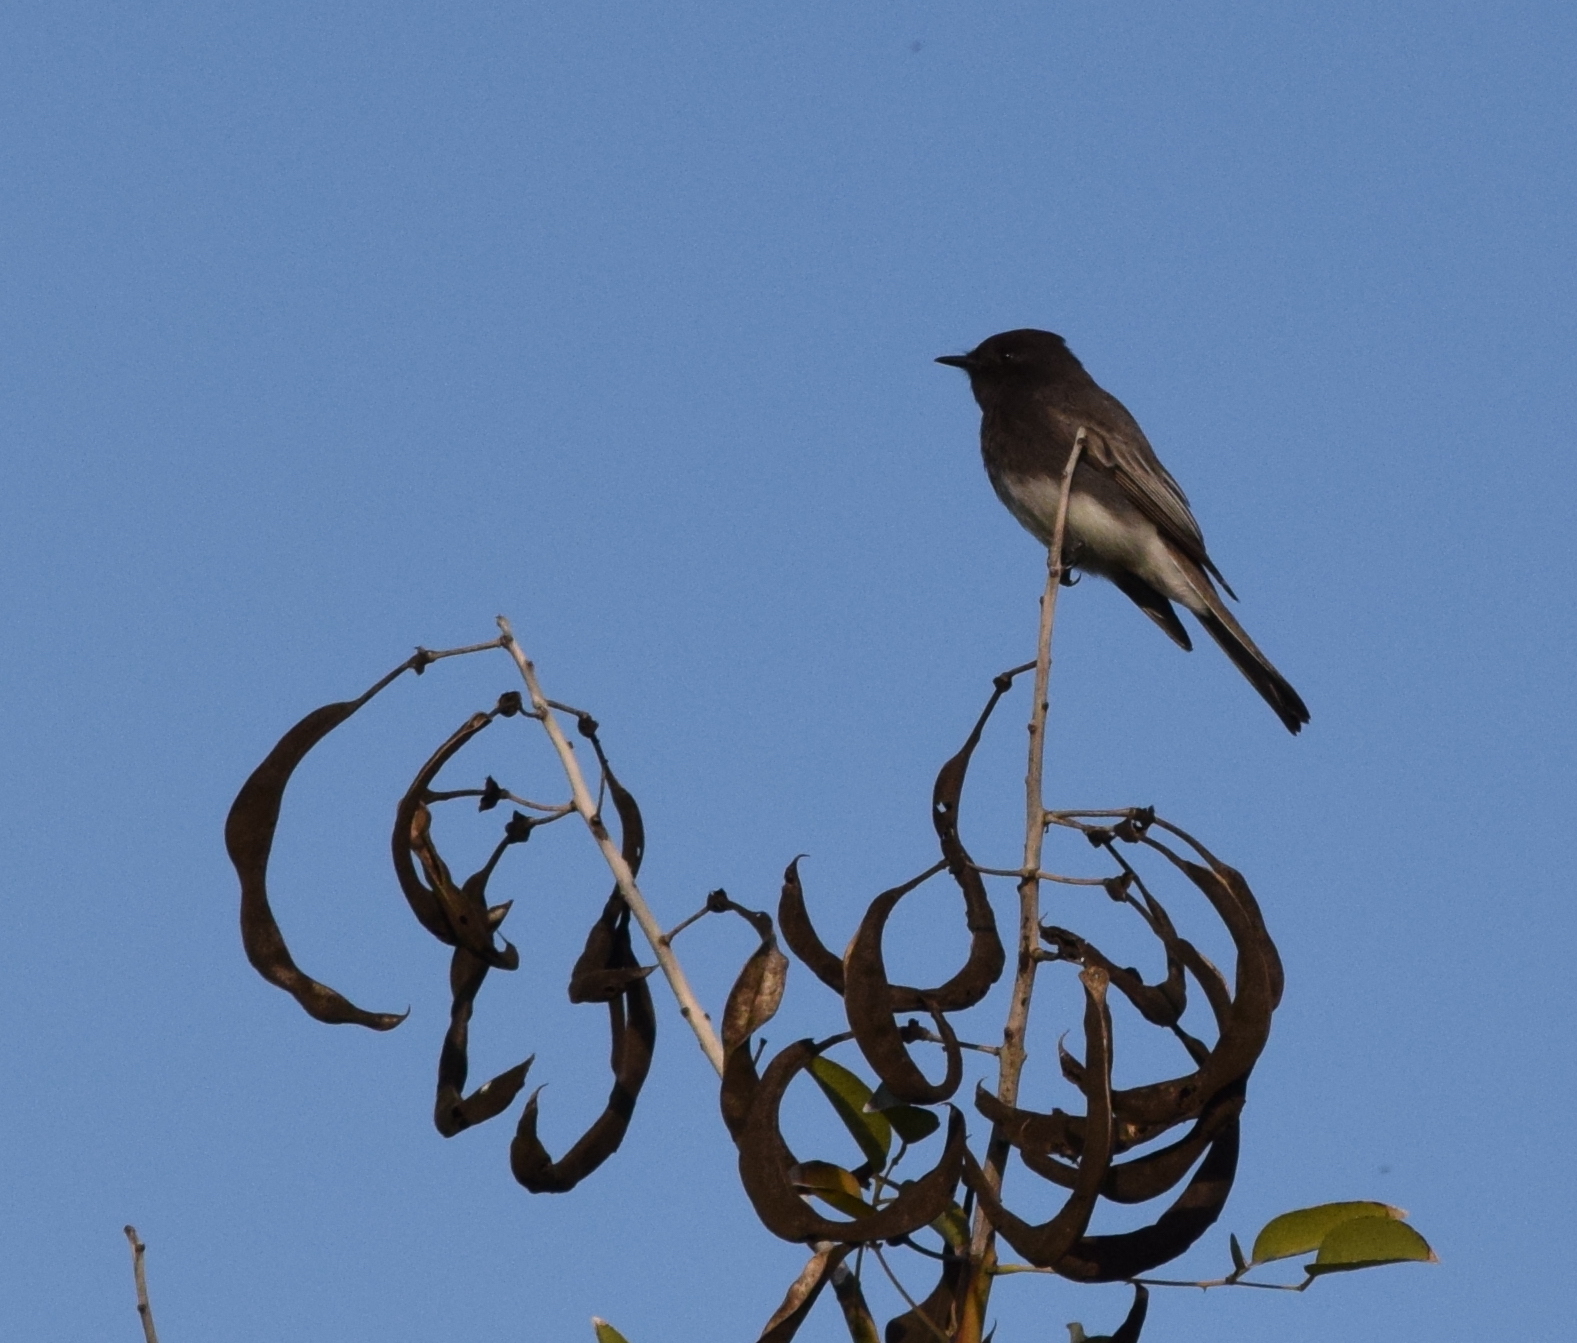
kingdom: Animalia
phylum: Chordata
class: Aves
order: Passeriformes
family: Tyrannidae
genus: Sayornis
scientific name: Sayornis nigricans
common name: Black phoebe
